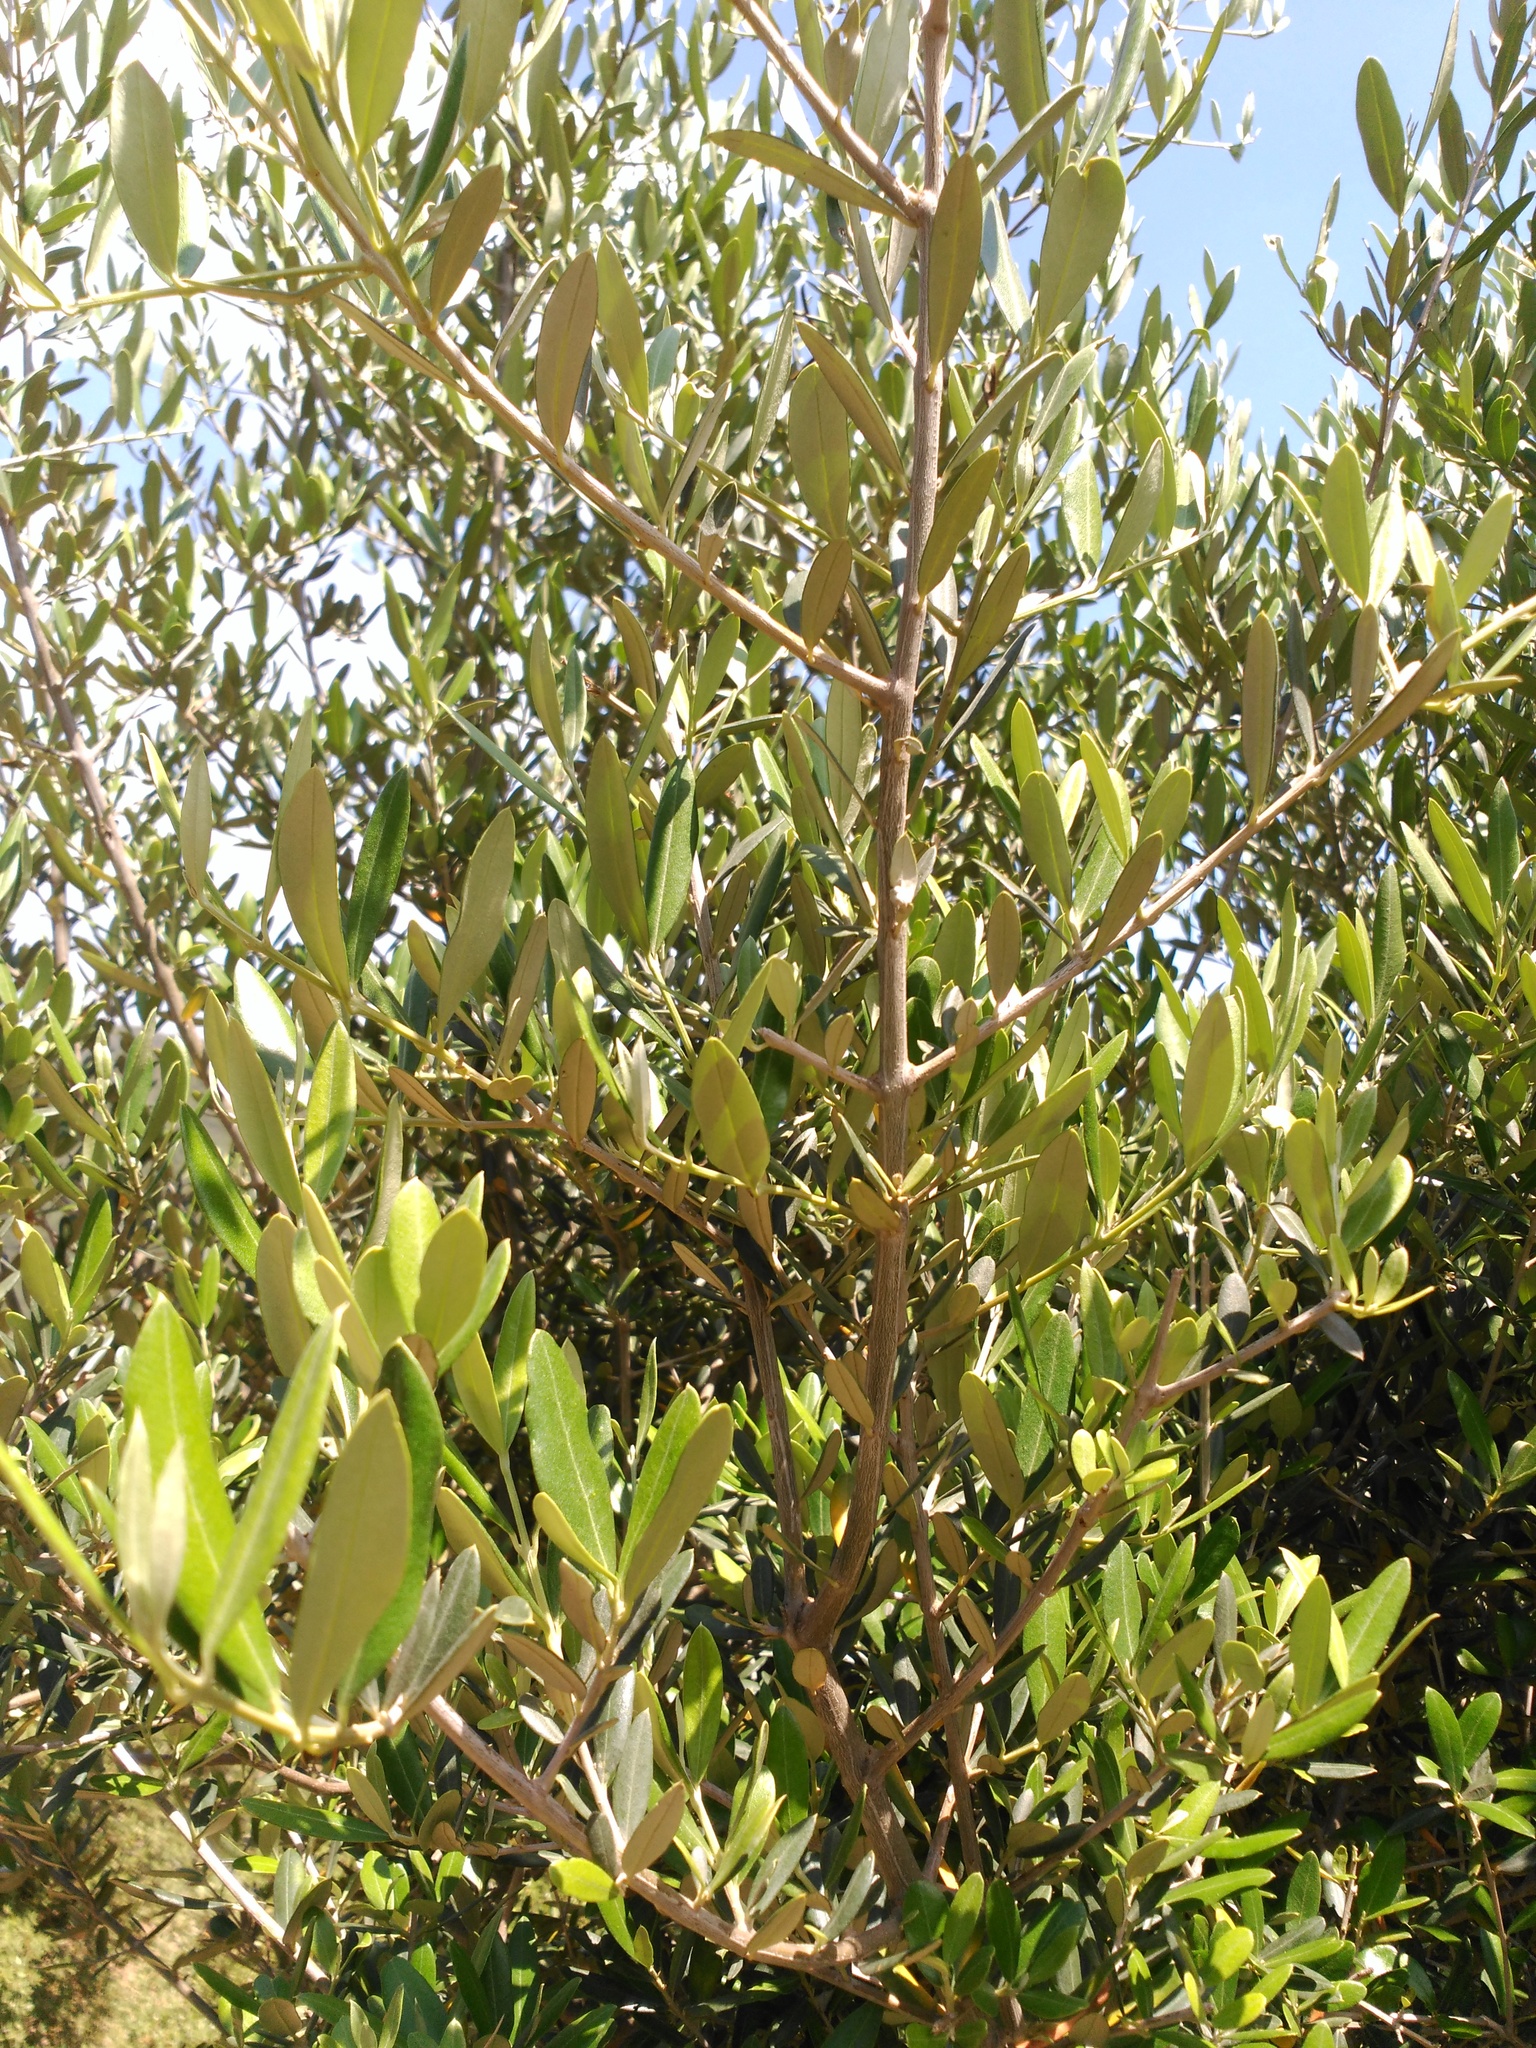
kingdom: Plantae
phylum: Tracheophyta
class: Magnoliopsida
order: Lamiales
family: Oleaceae
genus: Olea
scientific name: Olea europaea
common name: Olive
